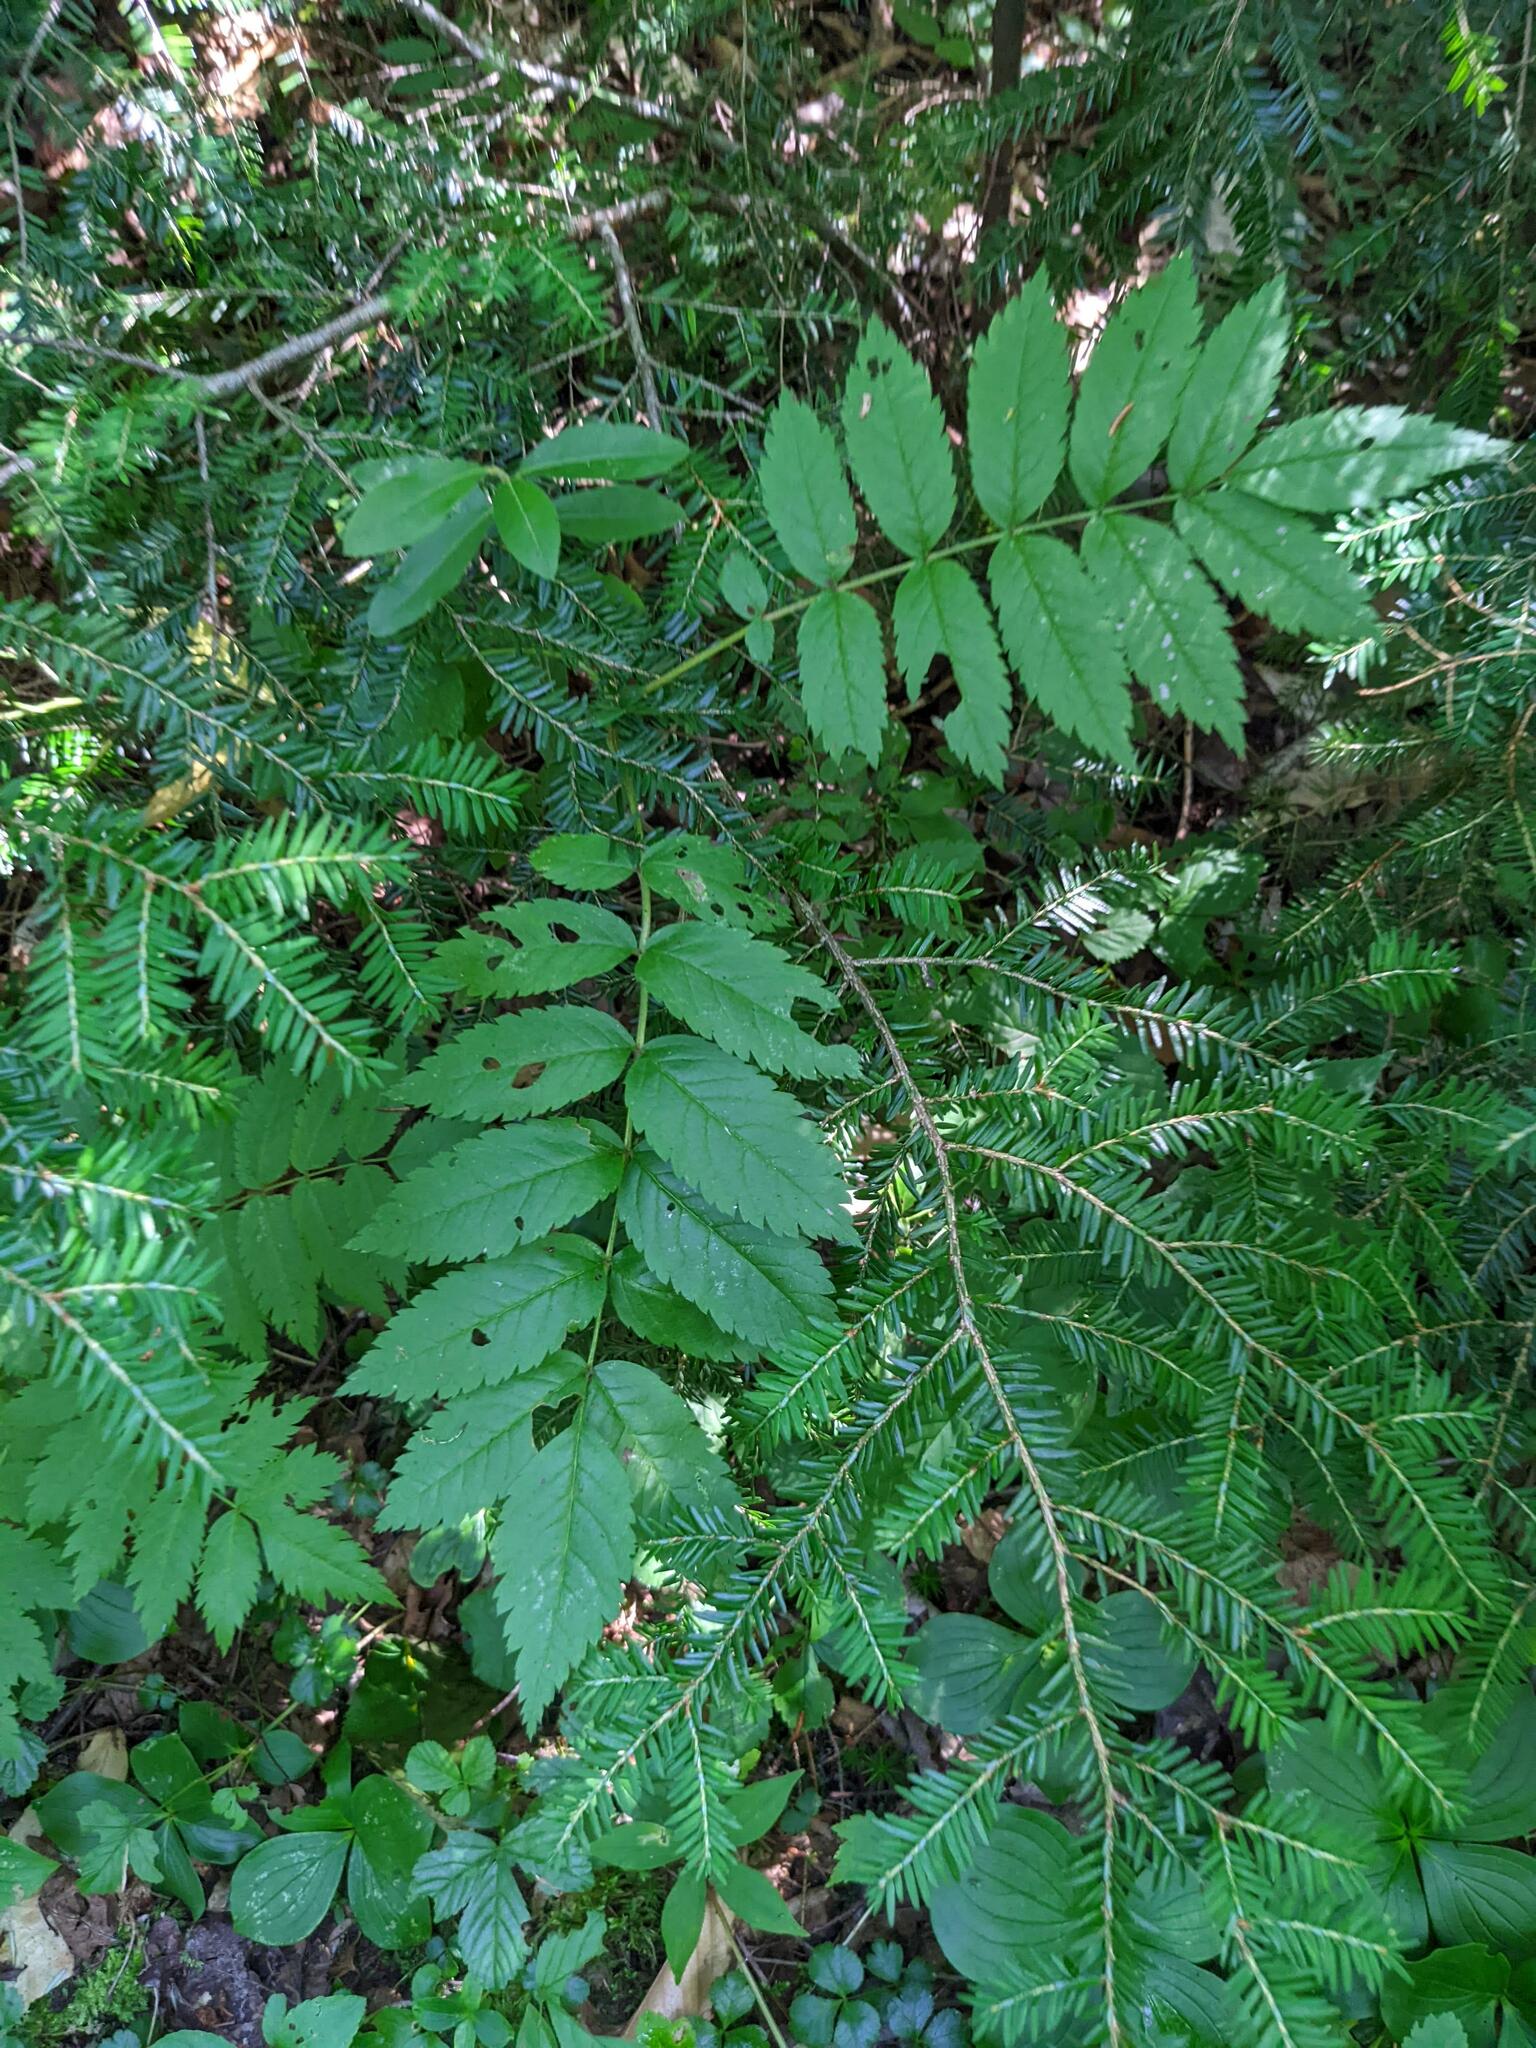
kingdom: Plantae
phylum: Tracheophyta
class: Pinopsida
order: Pinales
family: Pinaceae
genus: Tsuga
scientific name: Tsuga canadensis
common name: Eastern hemlock
